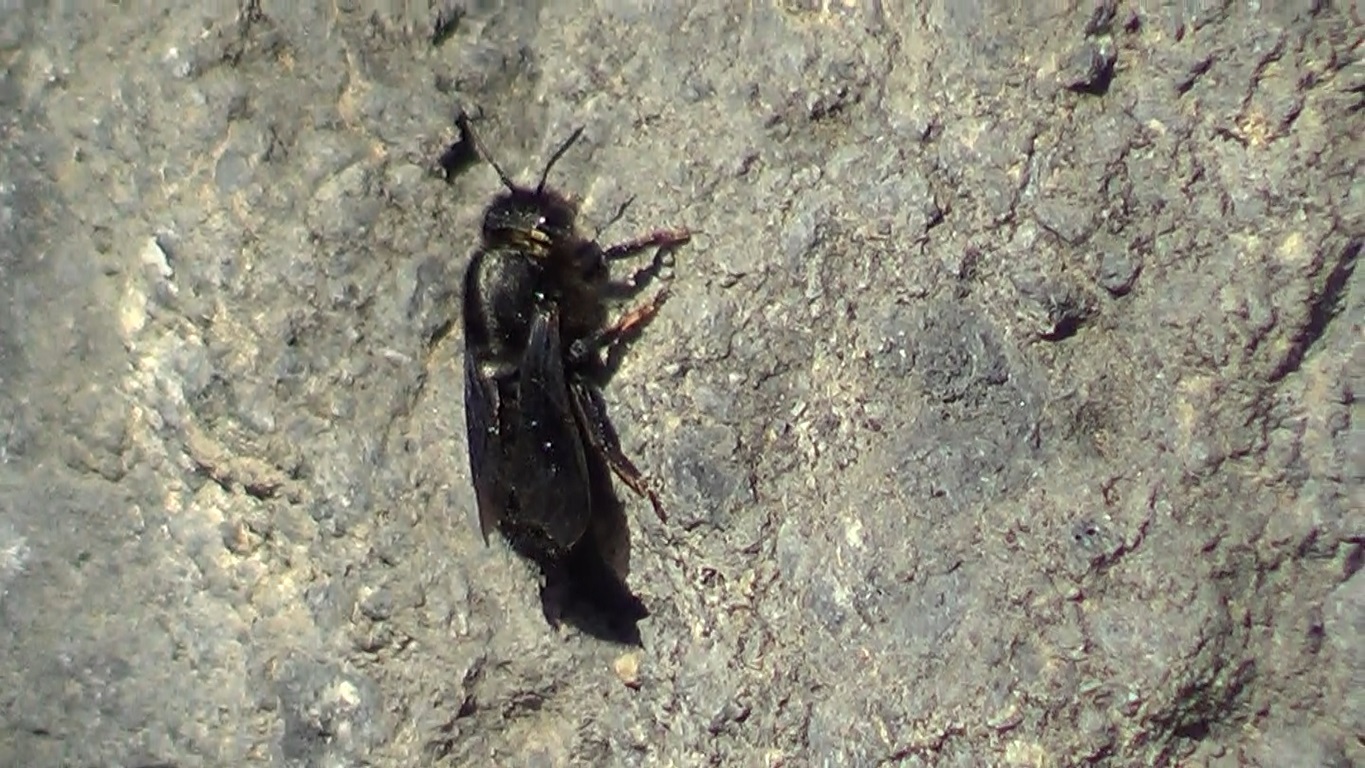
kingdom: Animalia
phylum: Arthropoda
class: Insecta
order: Hymenoptera
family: Megachilidae
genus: Megachile
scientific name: Megachile parietina
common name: Black mud bee
